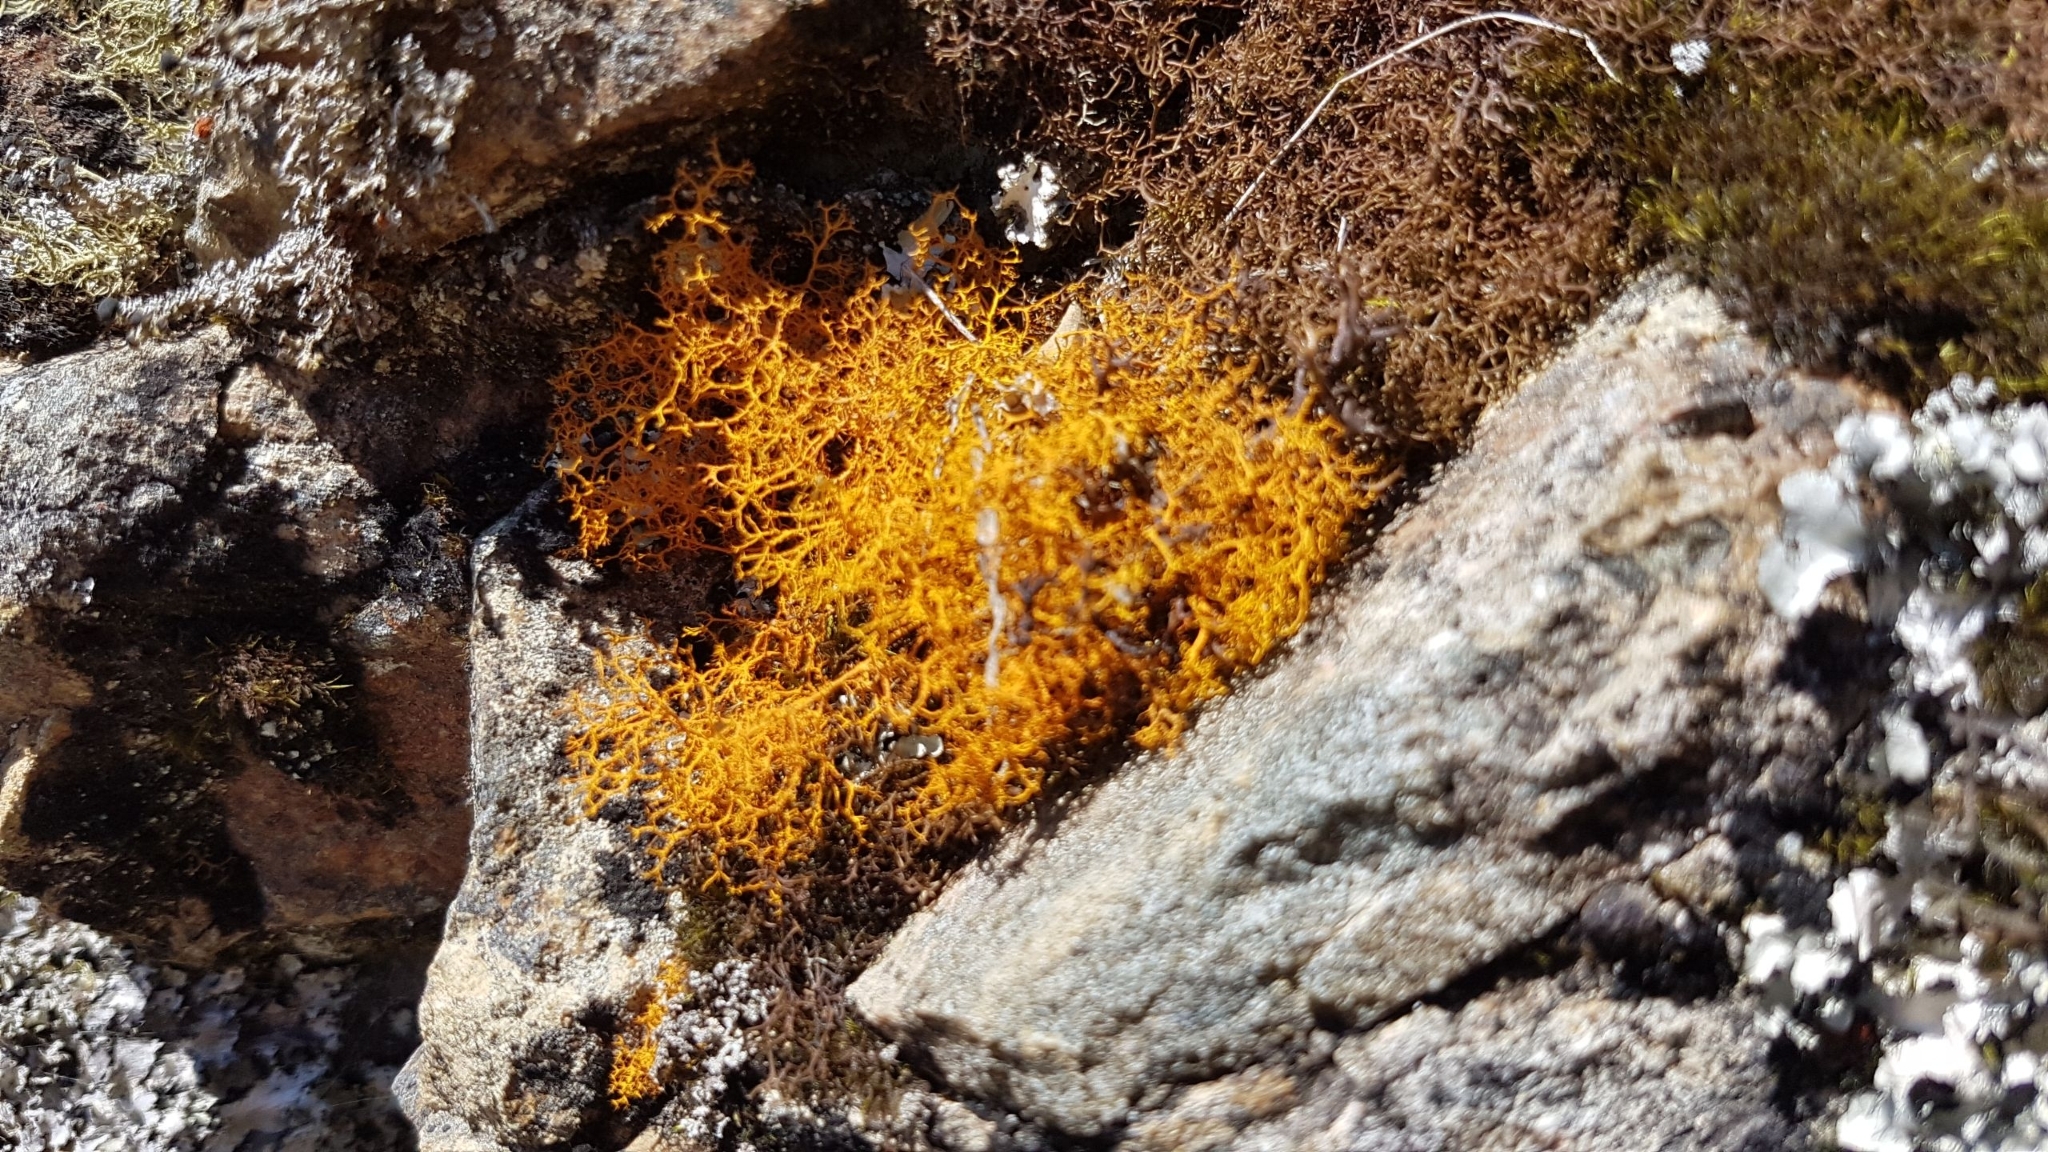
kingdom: Fungi
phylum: Ascomycota
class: Lecanoromycetes
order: Teloschistales
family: Teloschistaceae
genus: Teloschistes
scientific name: Teloschistes flavicans
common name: Golden hair-lichen
